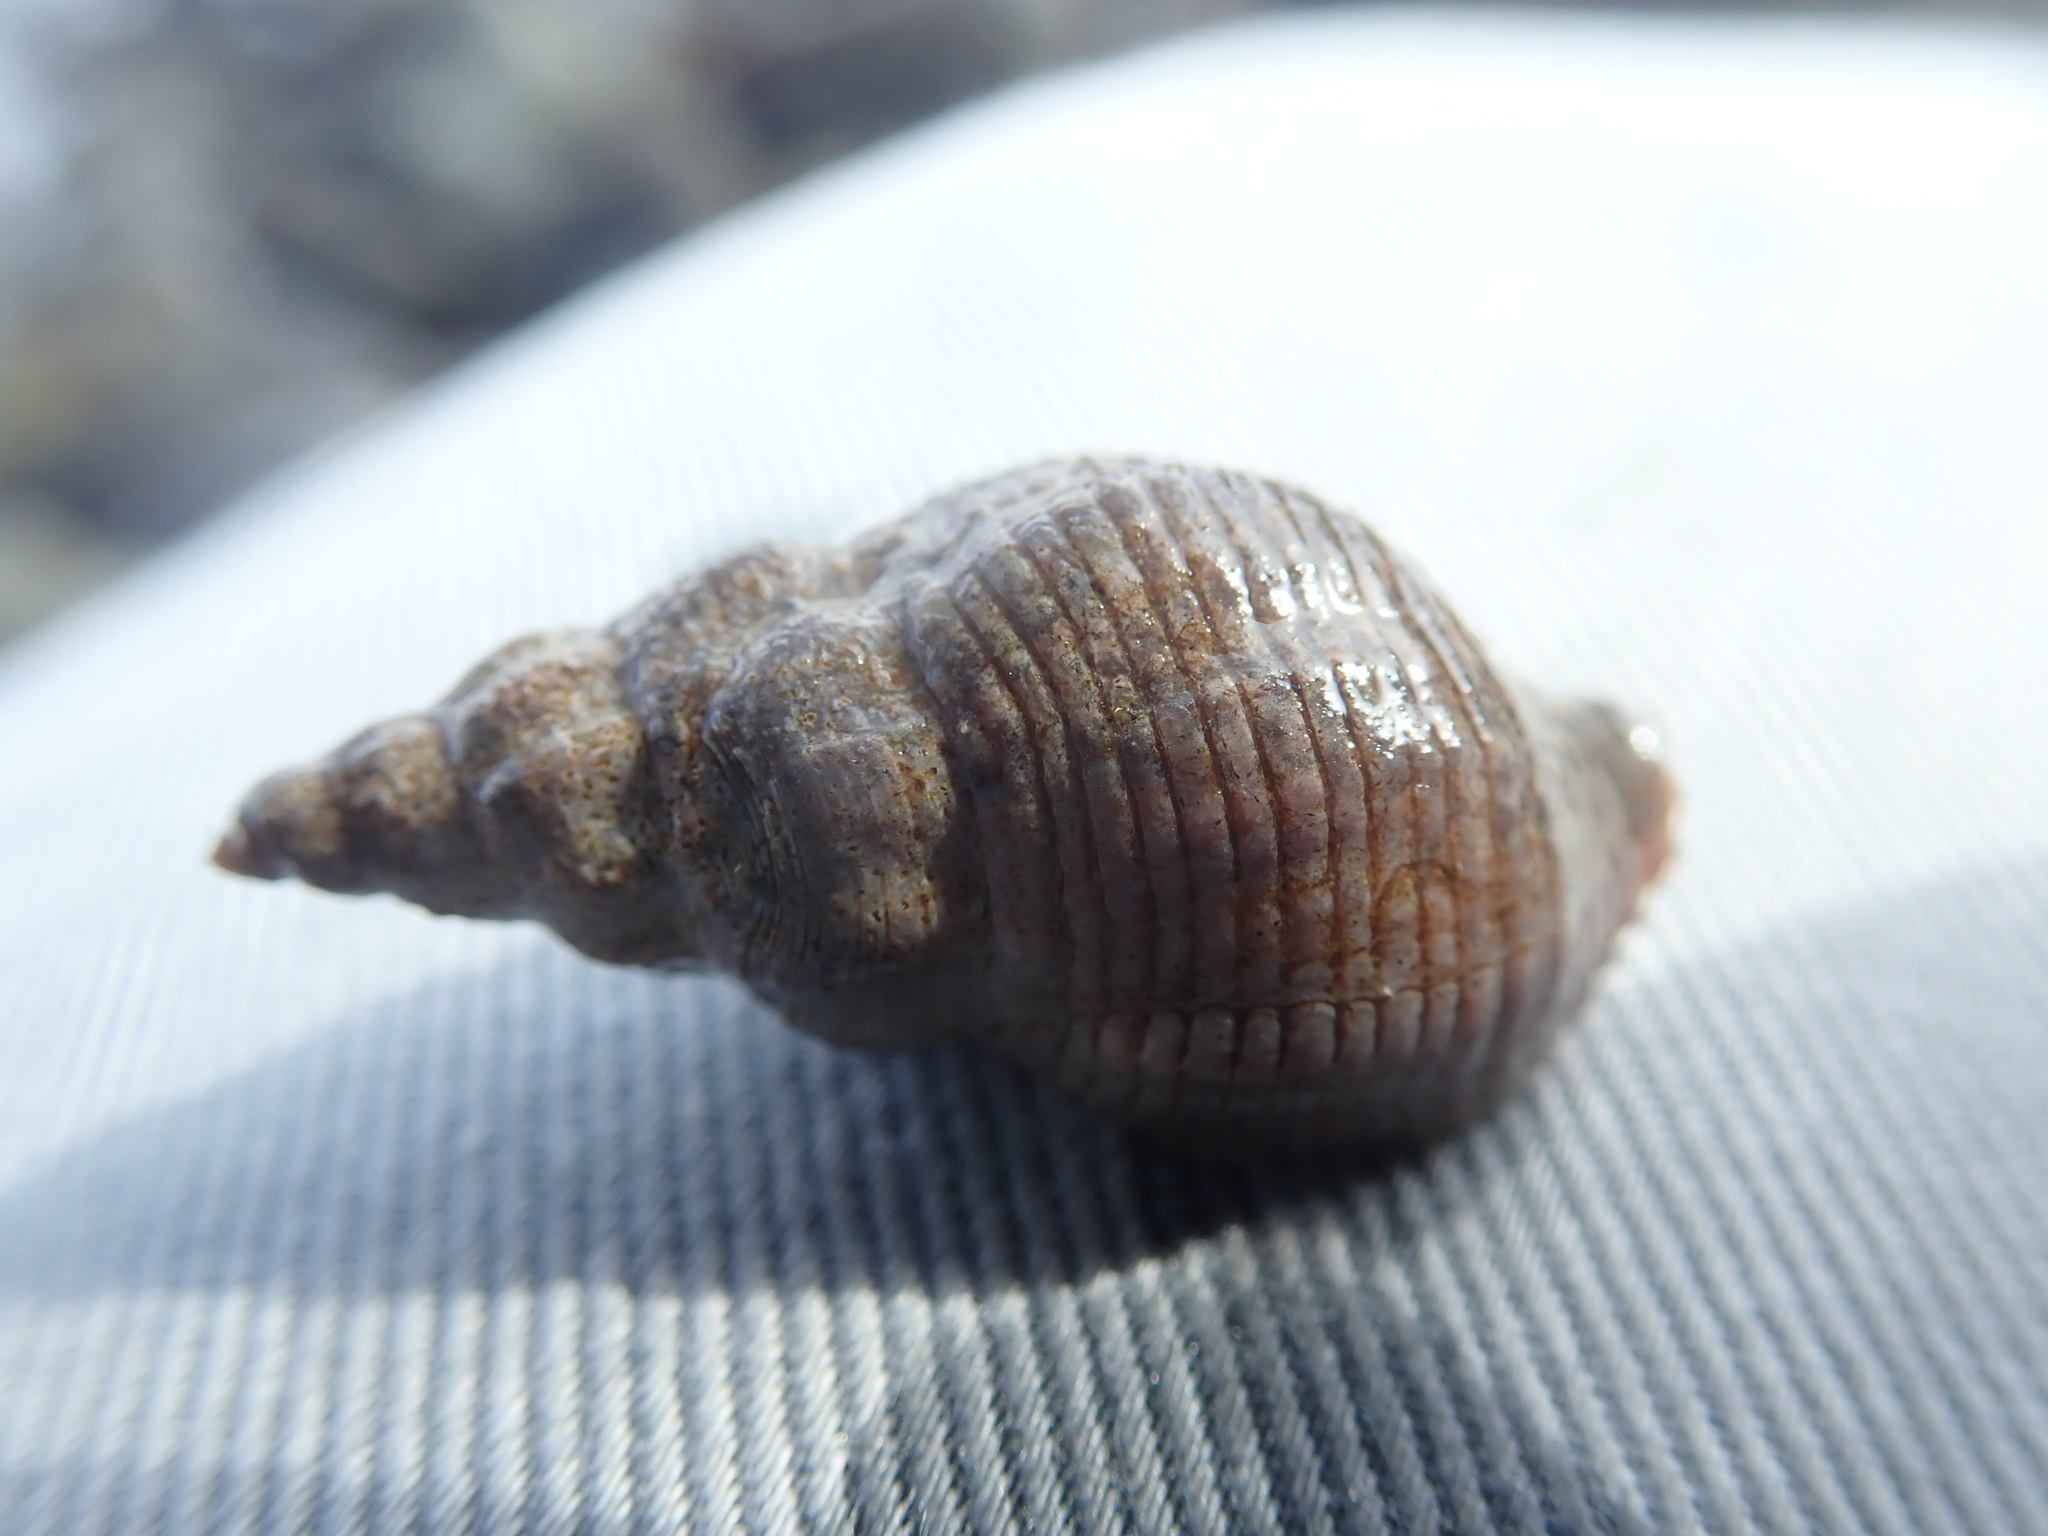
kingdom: Animalia
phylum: Mollusca
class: Gastropoda
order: Neogastropoda
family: Tudiclidae
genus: Lirabuccinum
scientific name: Lirabuccinum dirum
